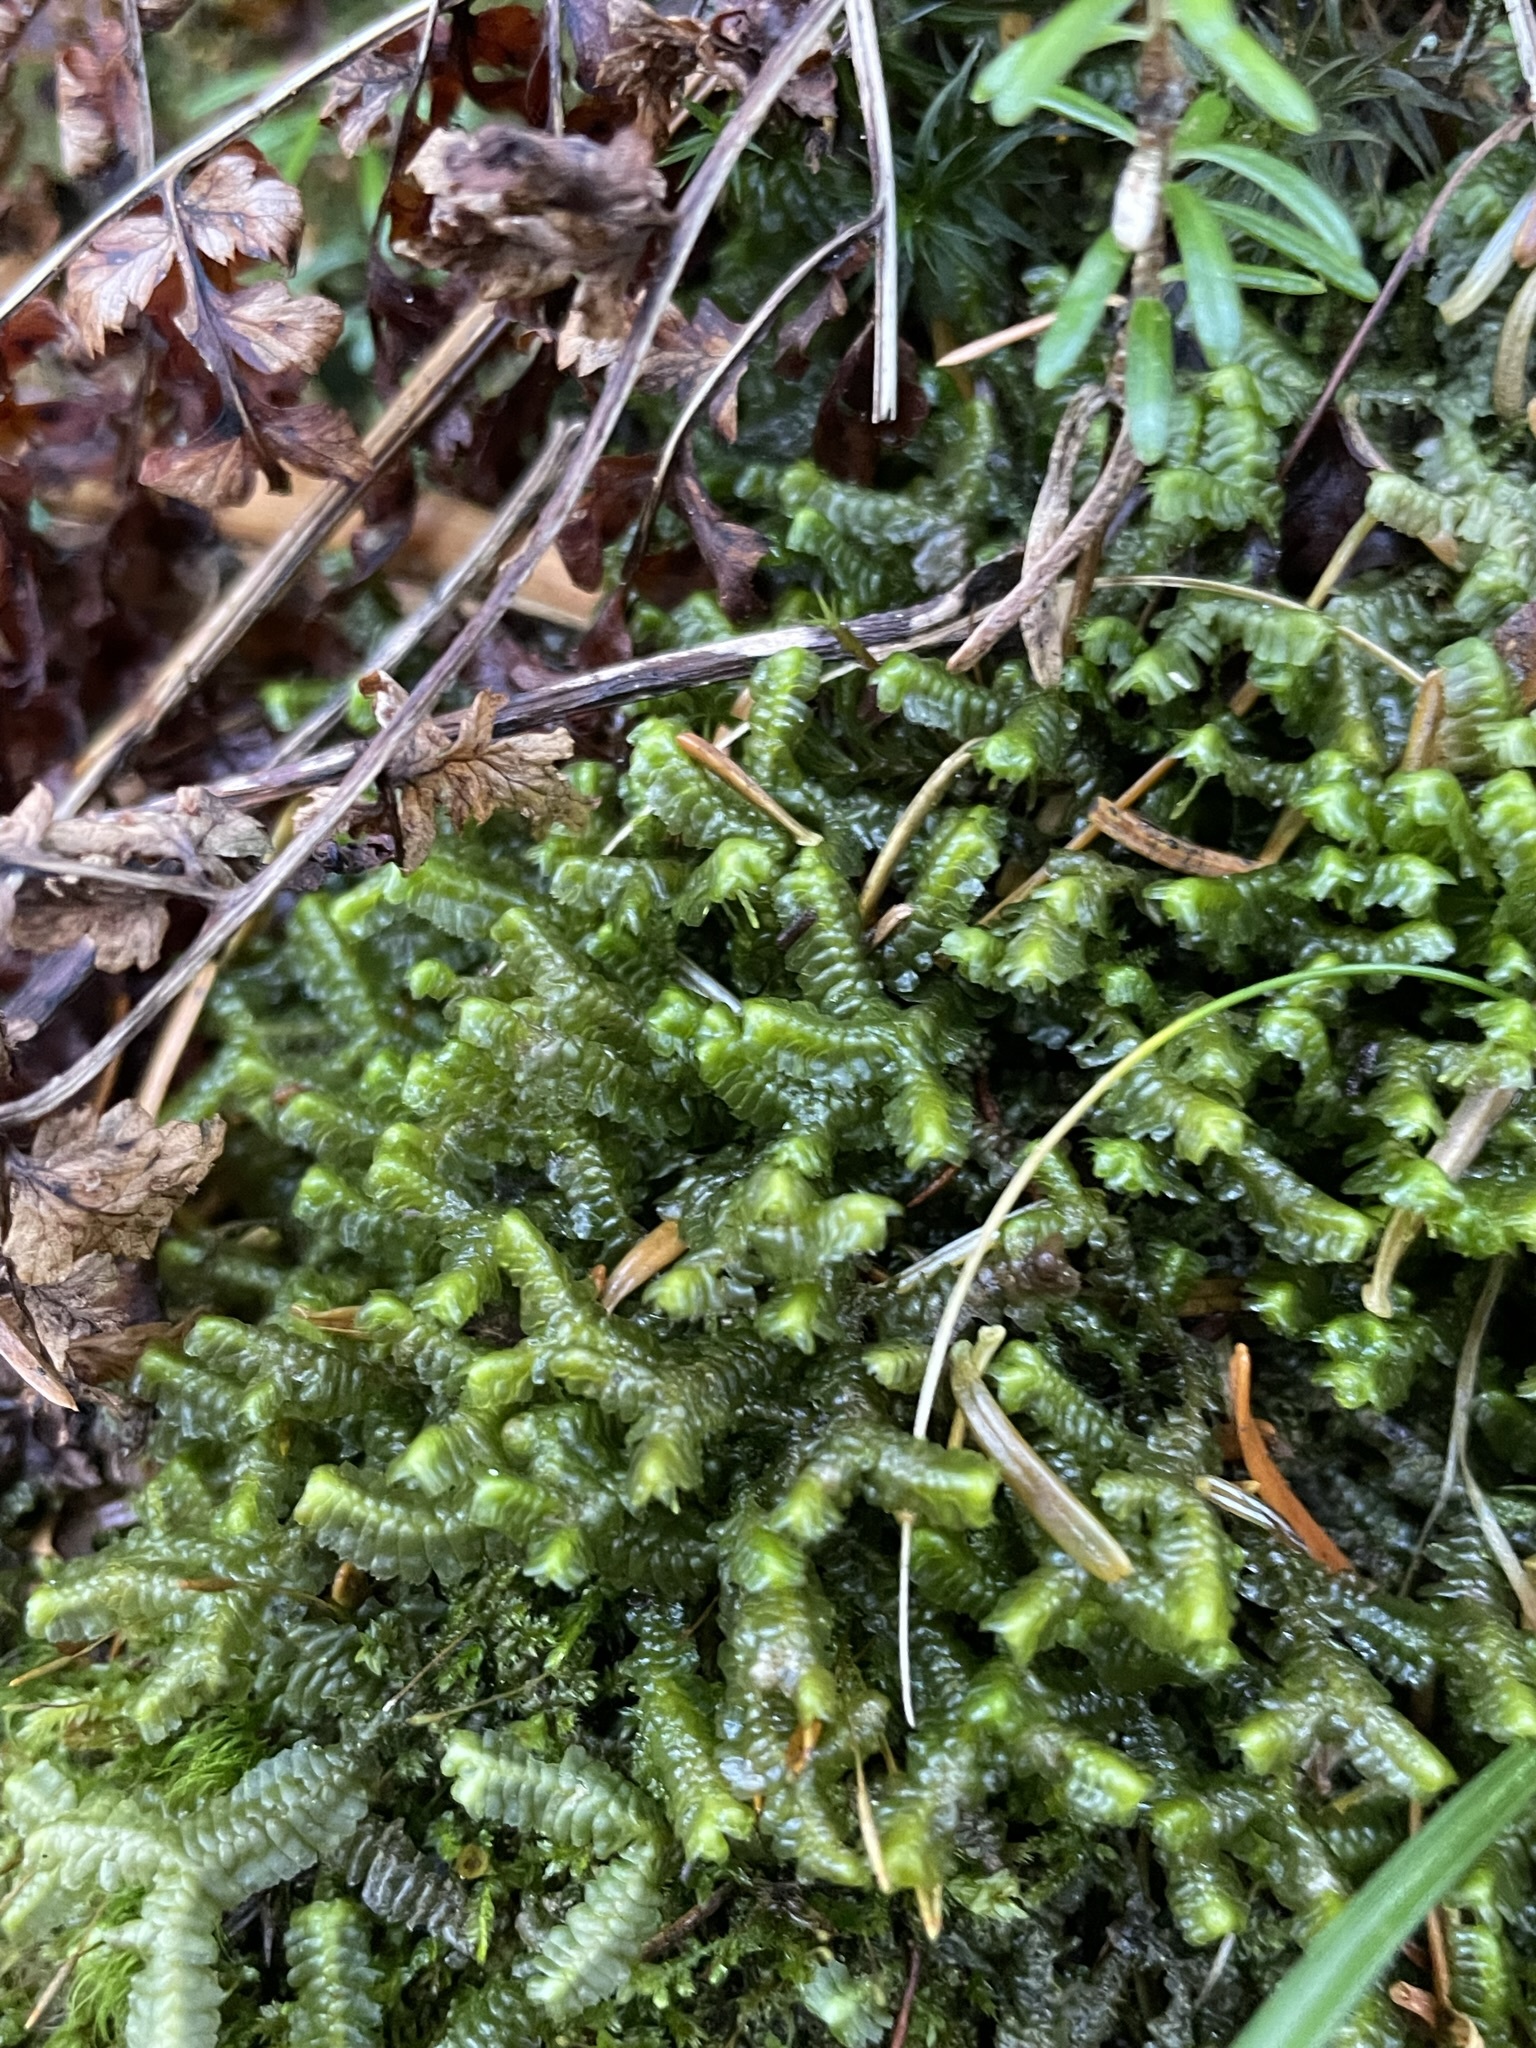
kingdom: Plantae
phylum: Marchantiophyta
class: Jungermanniopsida
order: Jungermanniales
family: Lepidoziaceae
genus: Bazzania
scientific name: Bazzania trilobata
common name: Three-lobed whipwort
